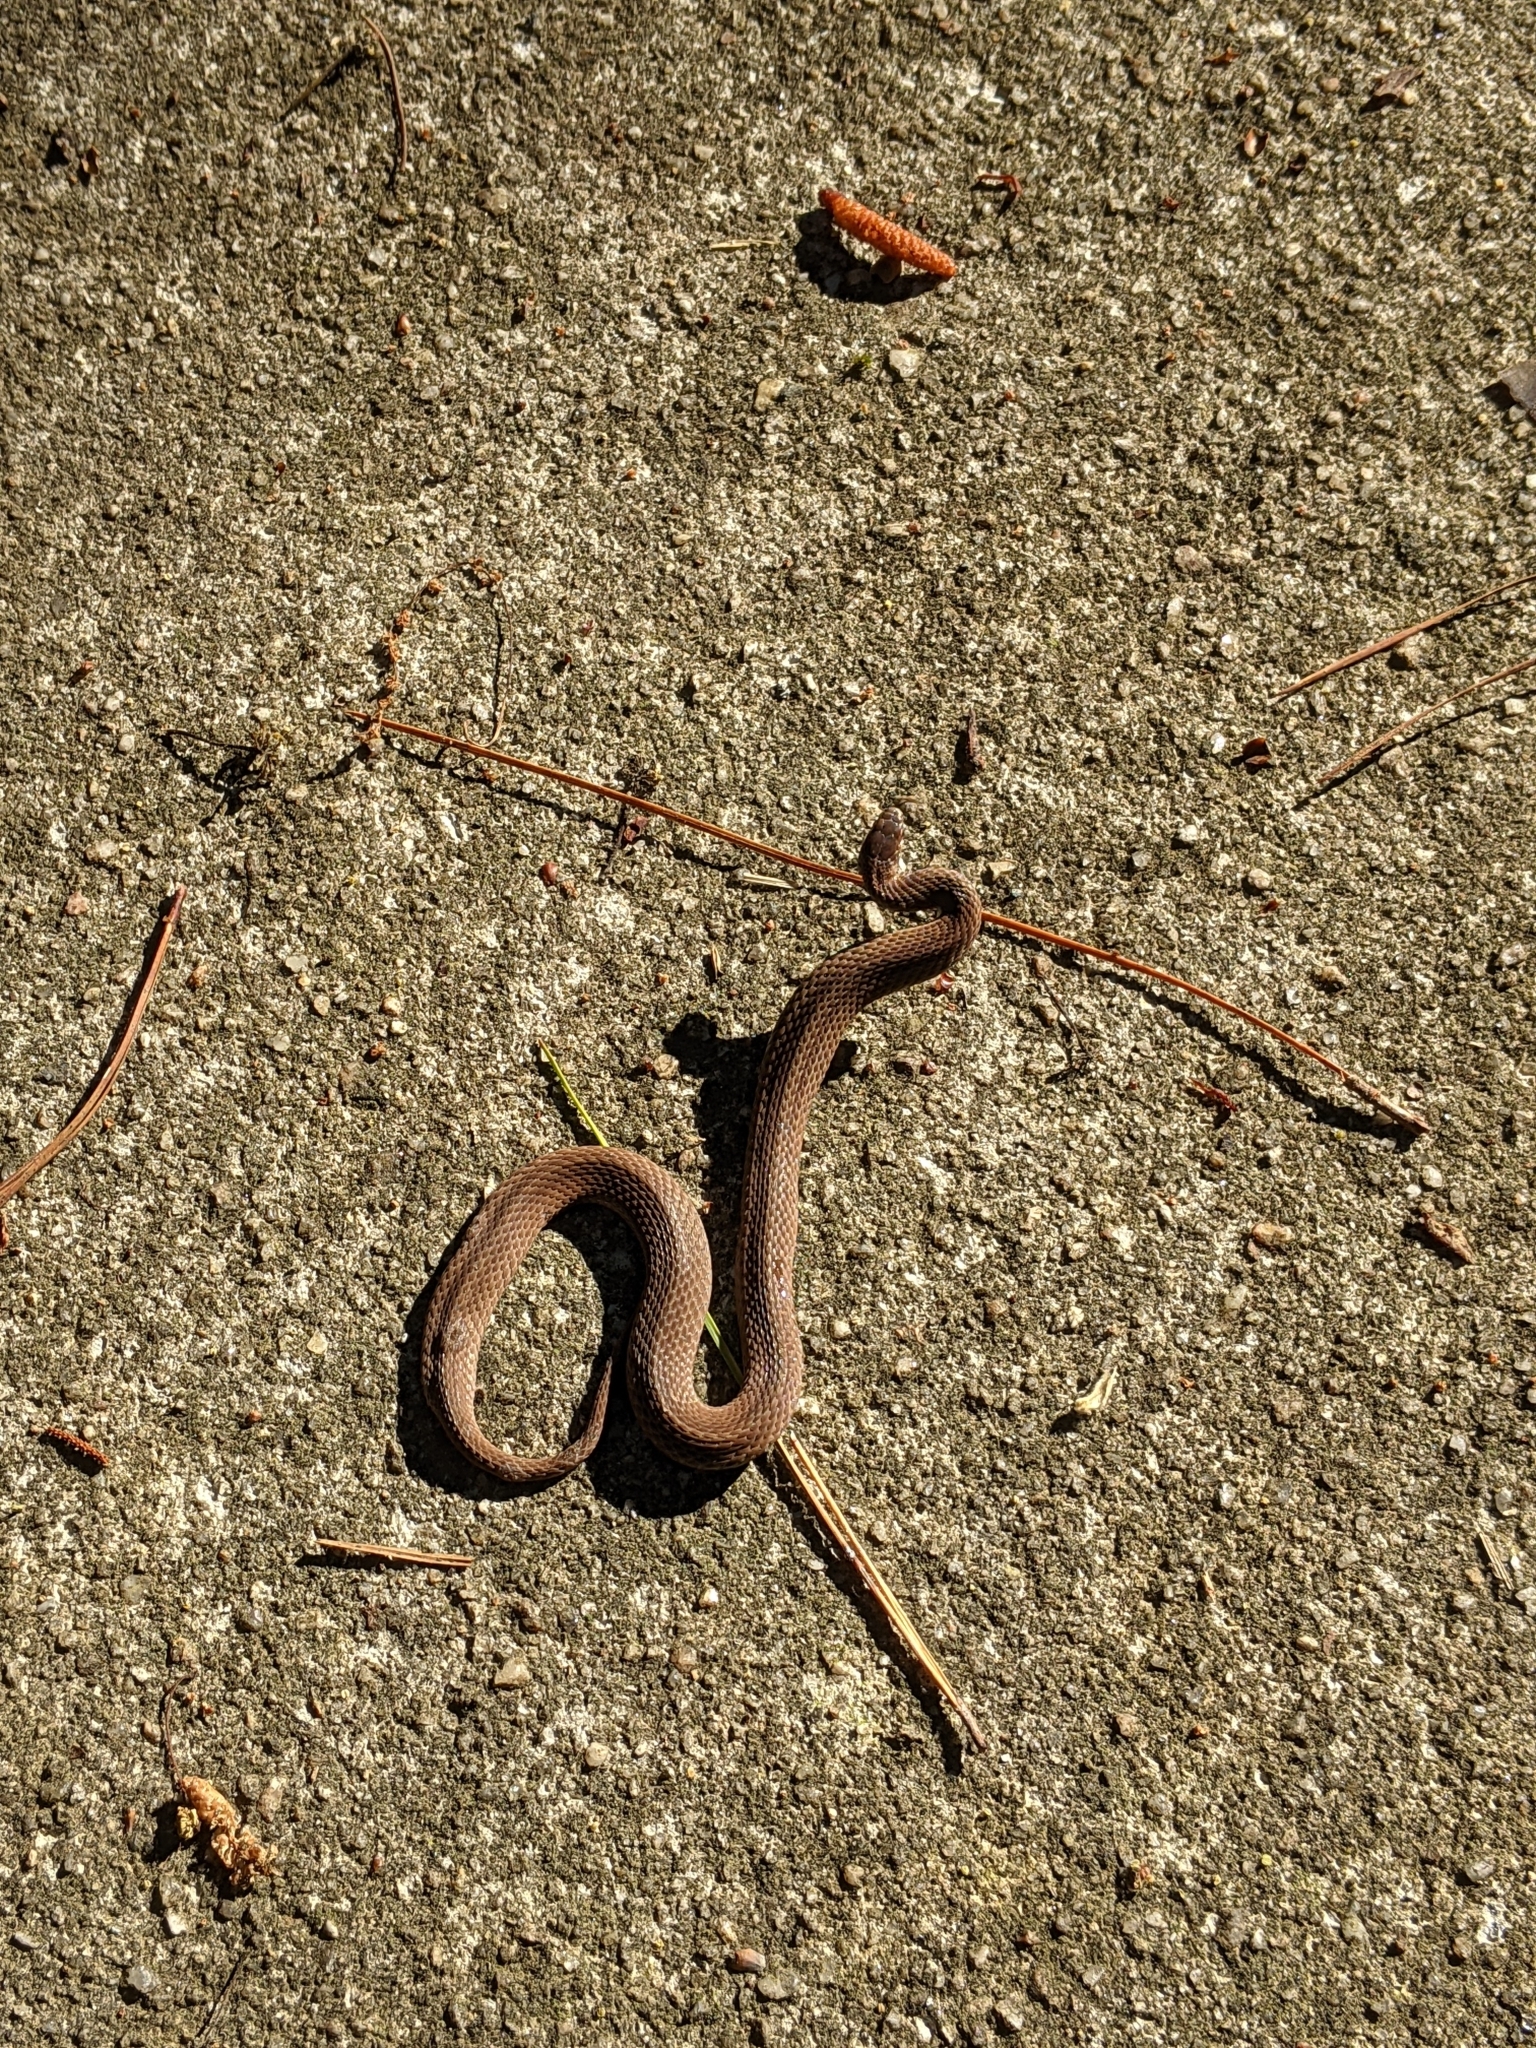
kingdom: Animalia
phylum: Chordata
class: Squamata
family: Colubridae
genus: Storeria
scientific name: Storeria occipitomaculata
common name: Redbelly snake
